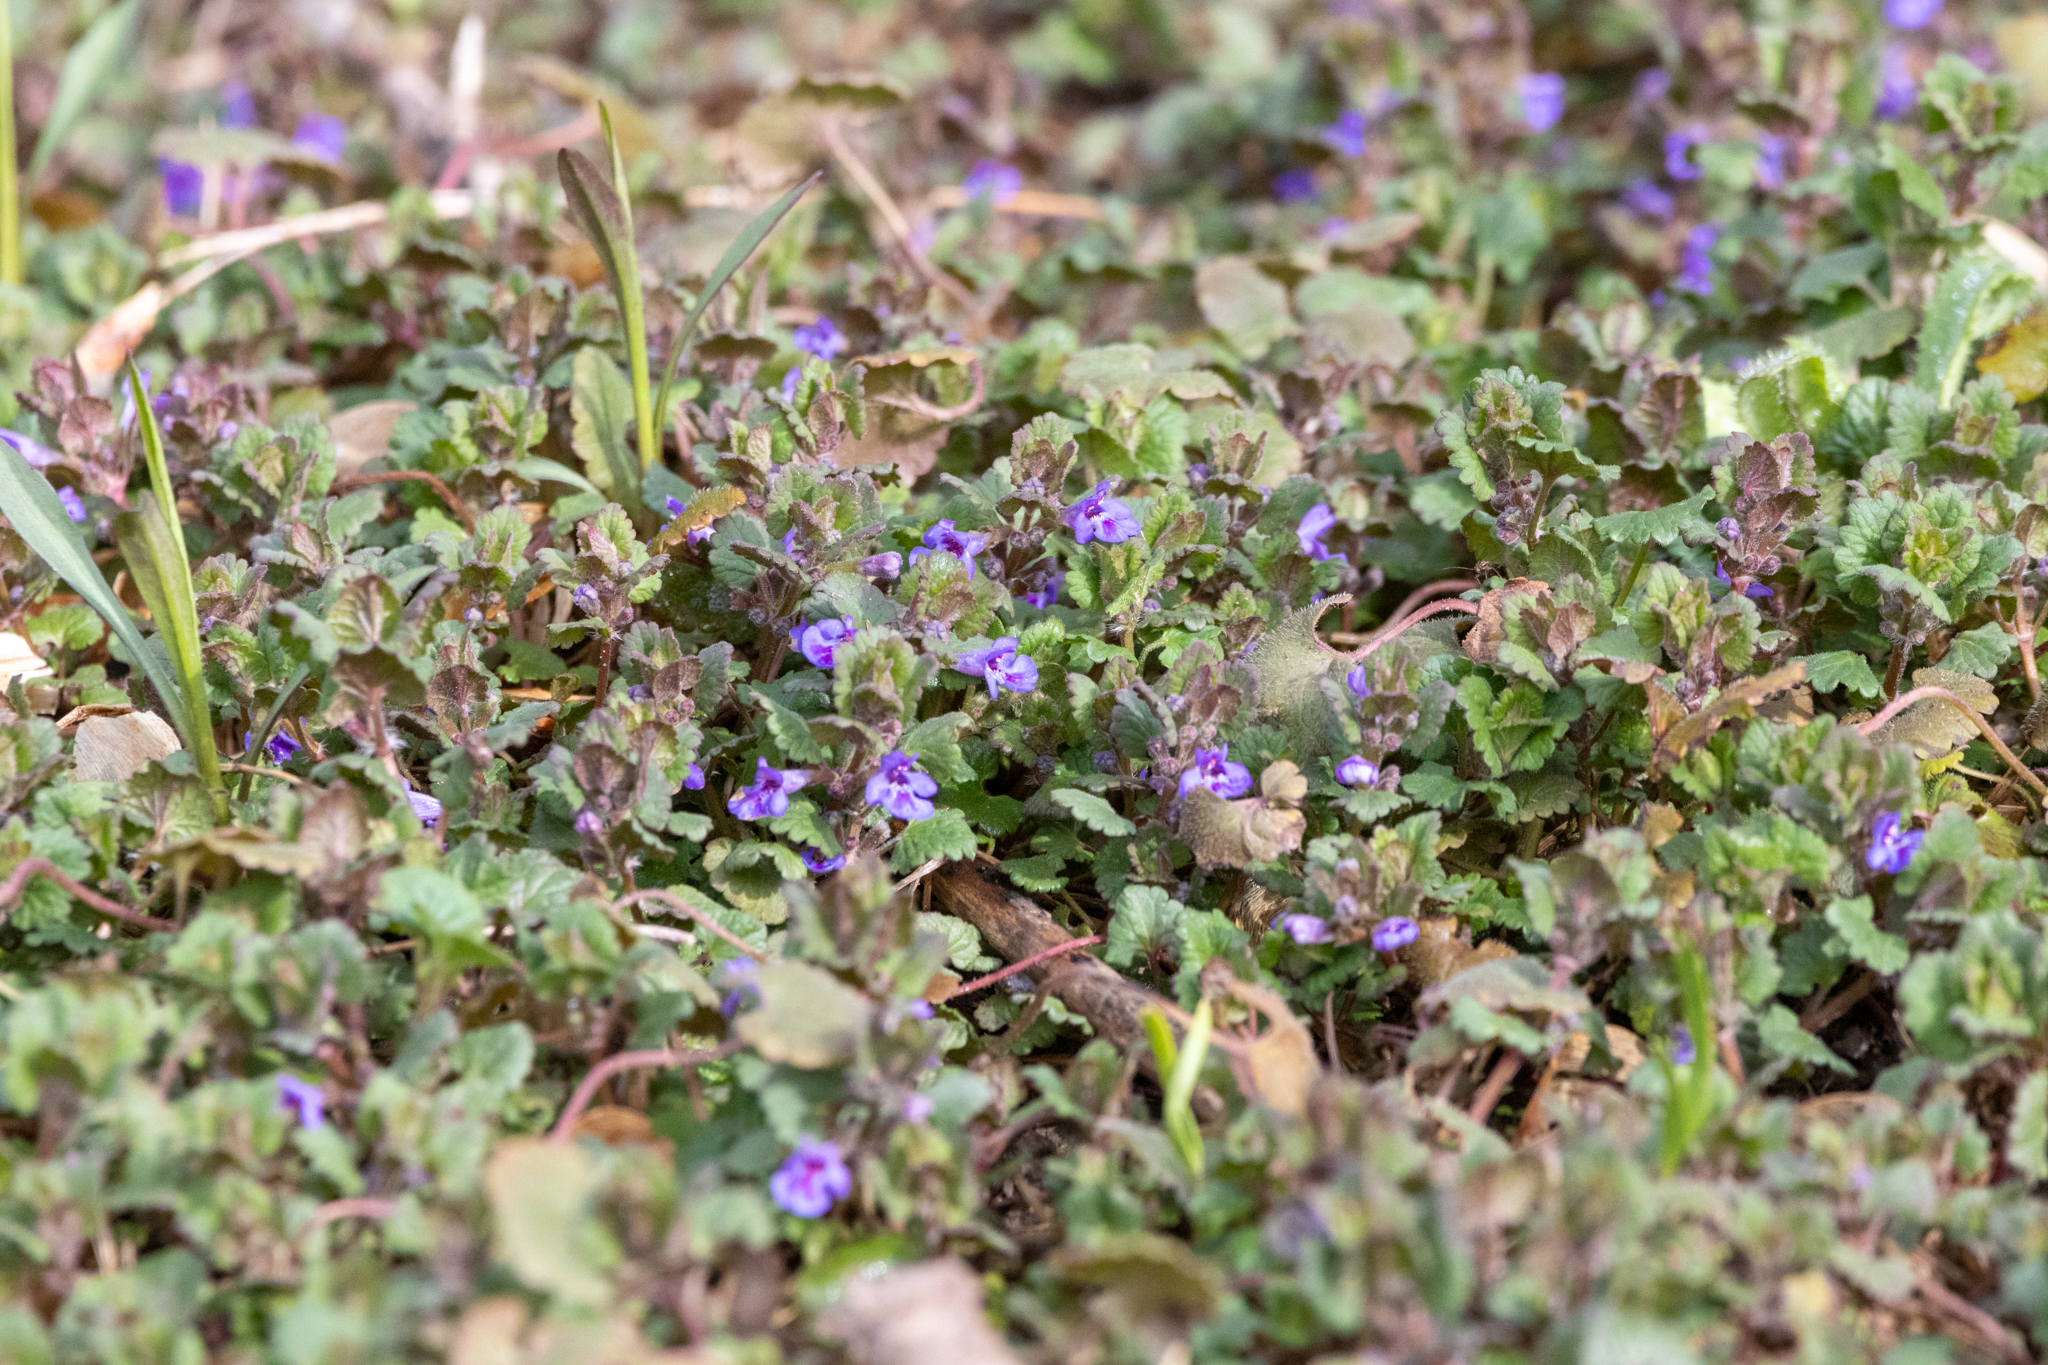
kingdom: Plantae
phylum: Tracheophyta
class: Magnoliopsida
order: Lamiales
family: Lamiaceae
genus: Glechoma
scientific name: Glechoma hederacea
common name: Ground ivy
